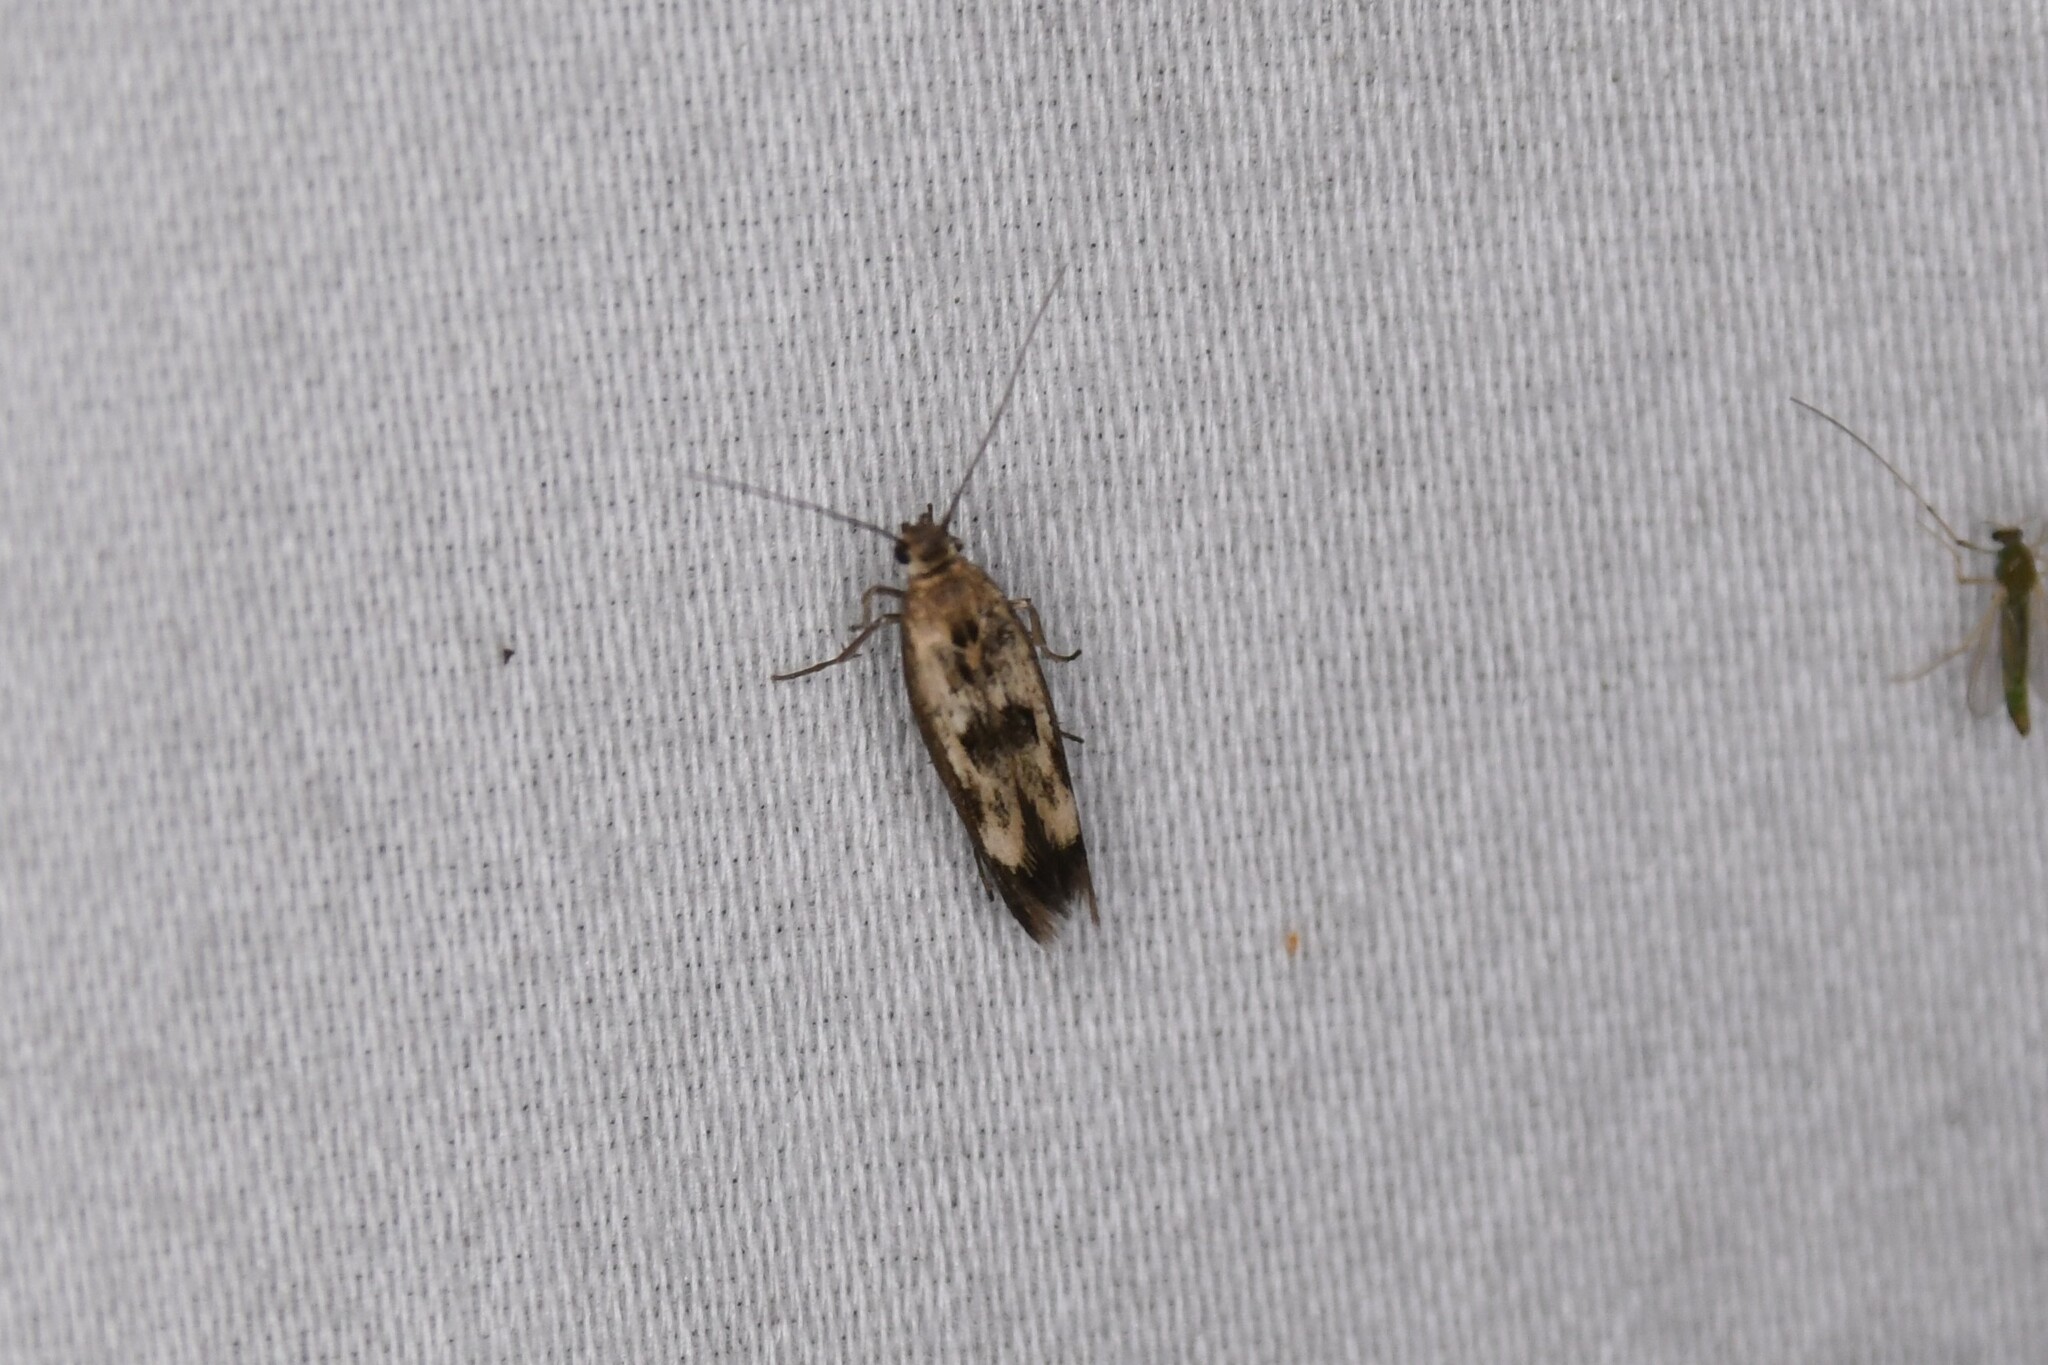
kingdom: Animalia
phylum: Arthropoda
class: Insecta
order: Lepidoptera
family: Scythrididae
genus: Scythris
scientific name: Scythris limbella
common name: Goosefoot owlet
